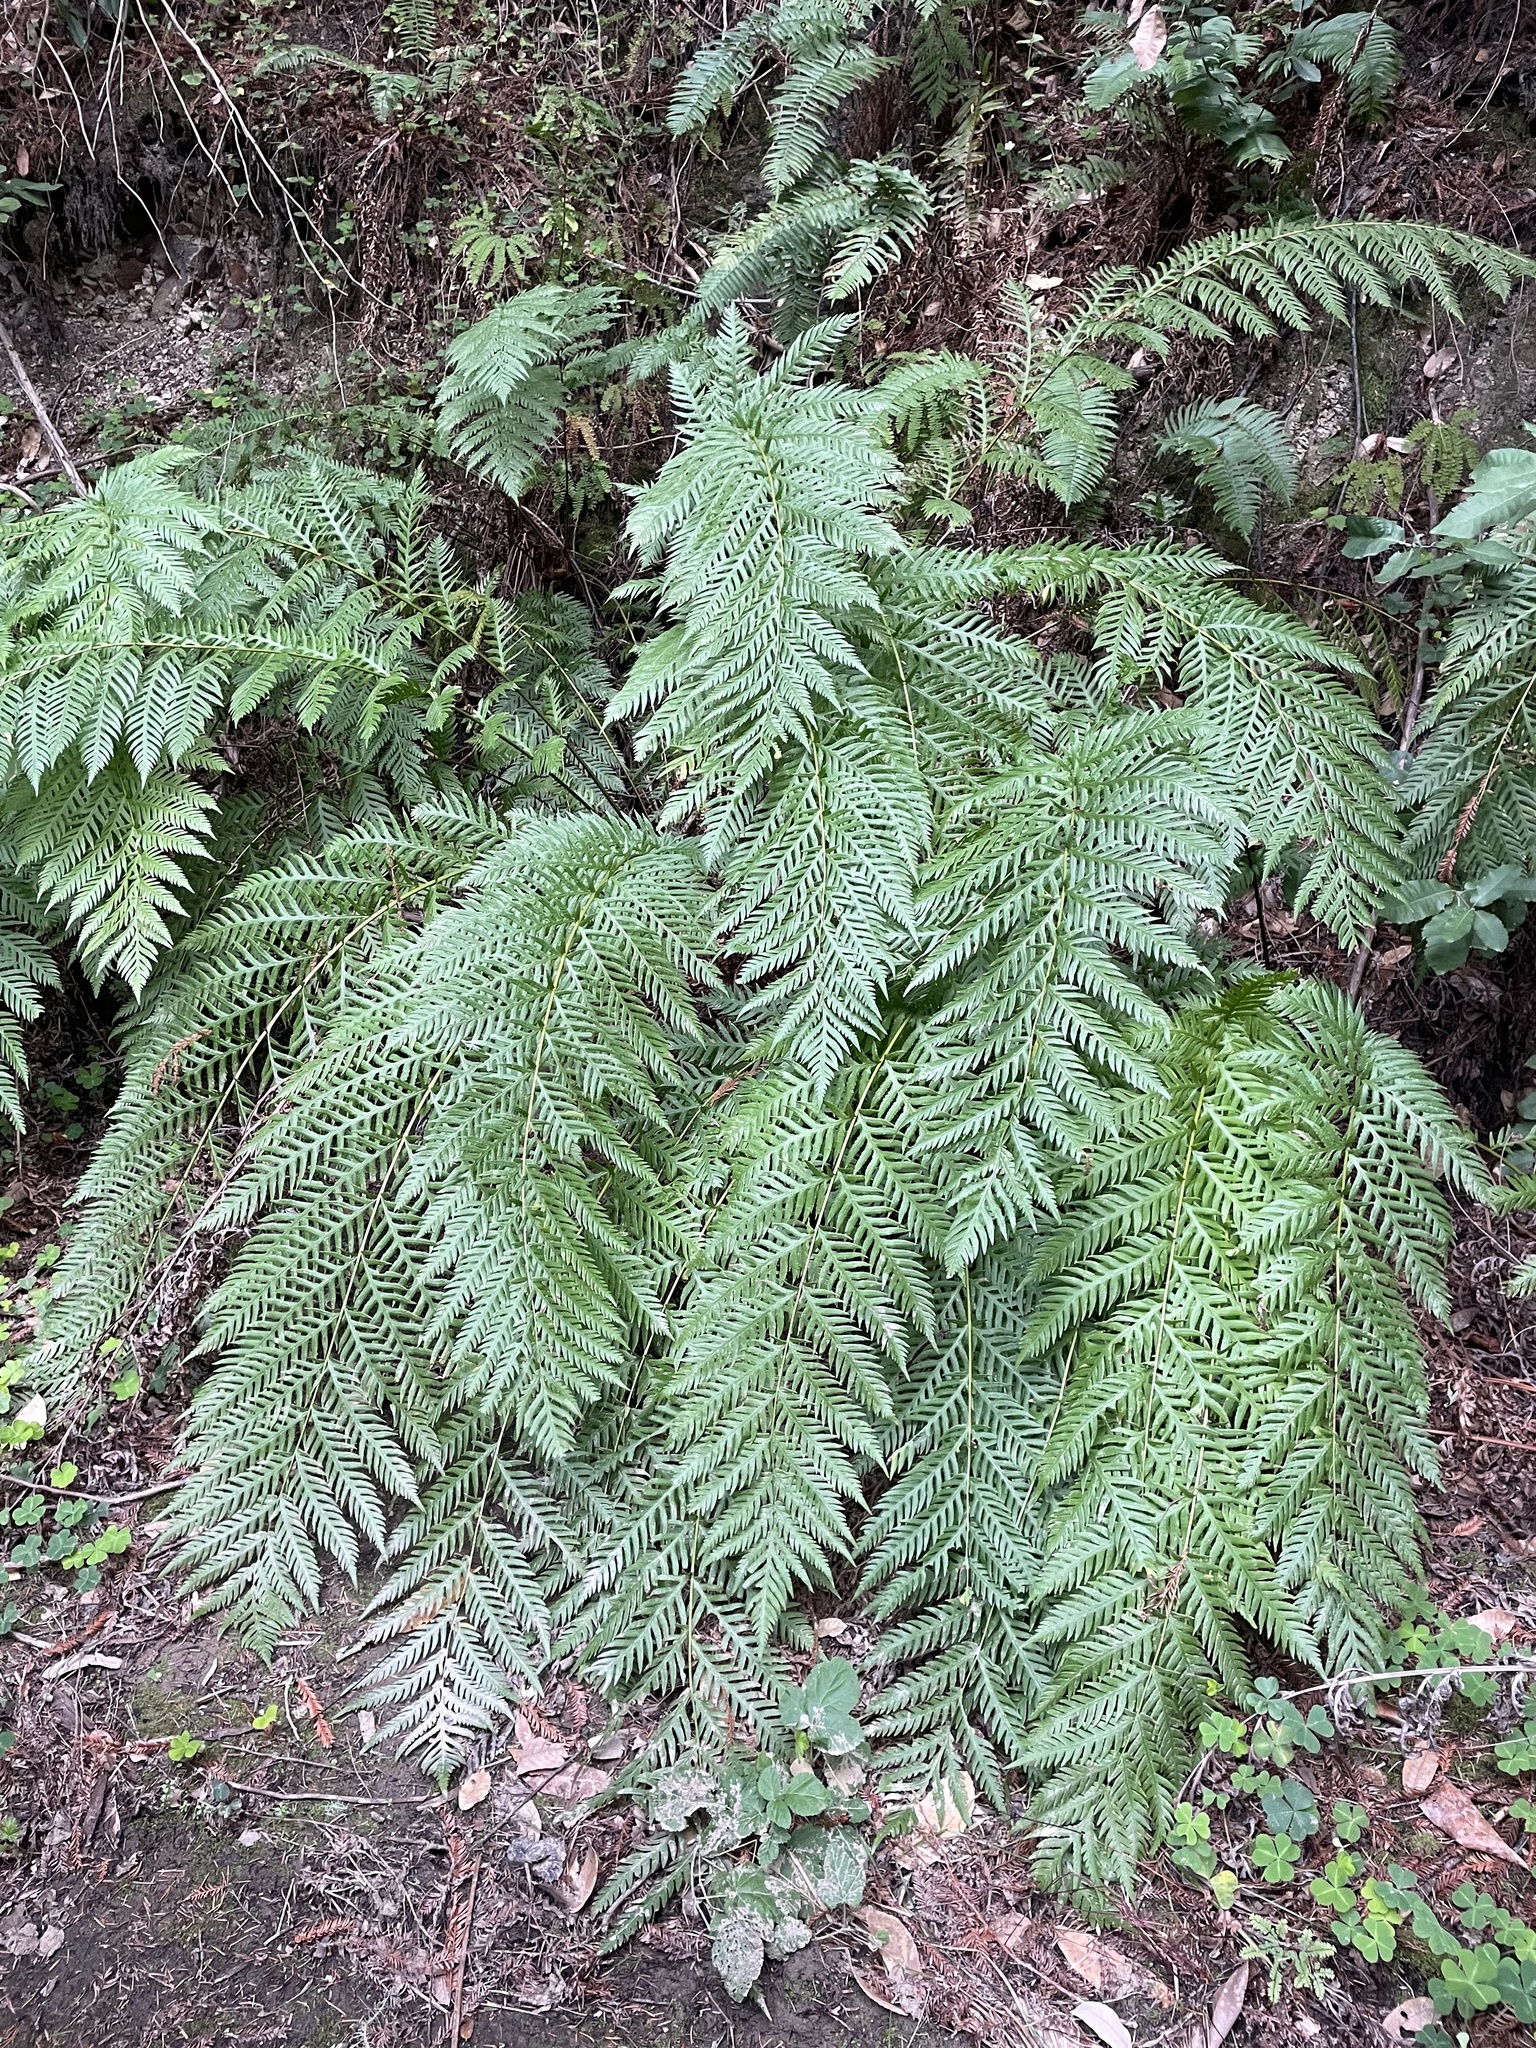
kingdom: Plantae
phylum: Tracheophyta
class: Polypodiopsida
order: Polypodiales
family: Blechnaceae
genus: Woodwardia
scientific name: Woodwardia fimbriata
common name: Giant chain fern
